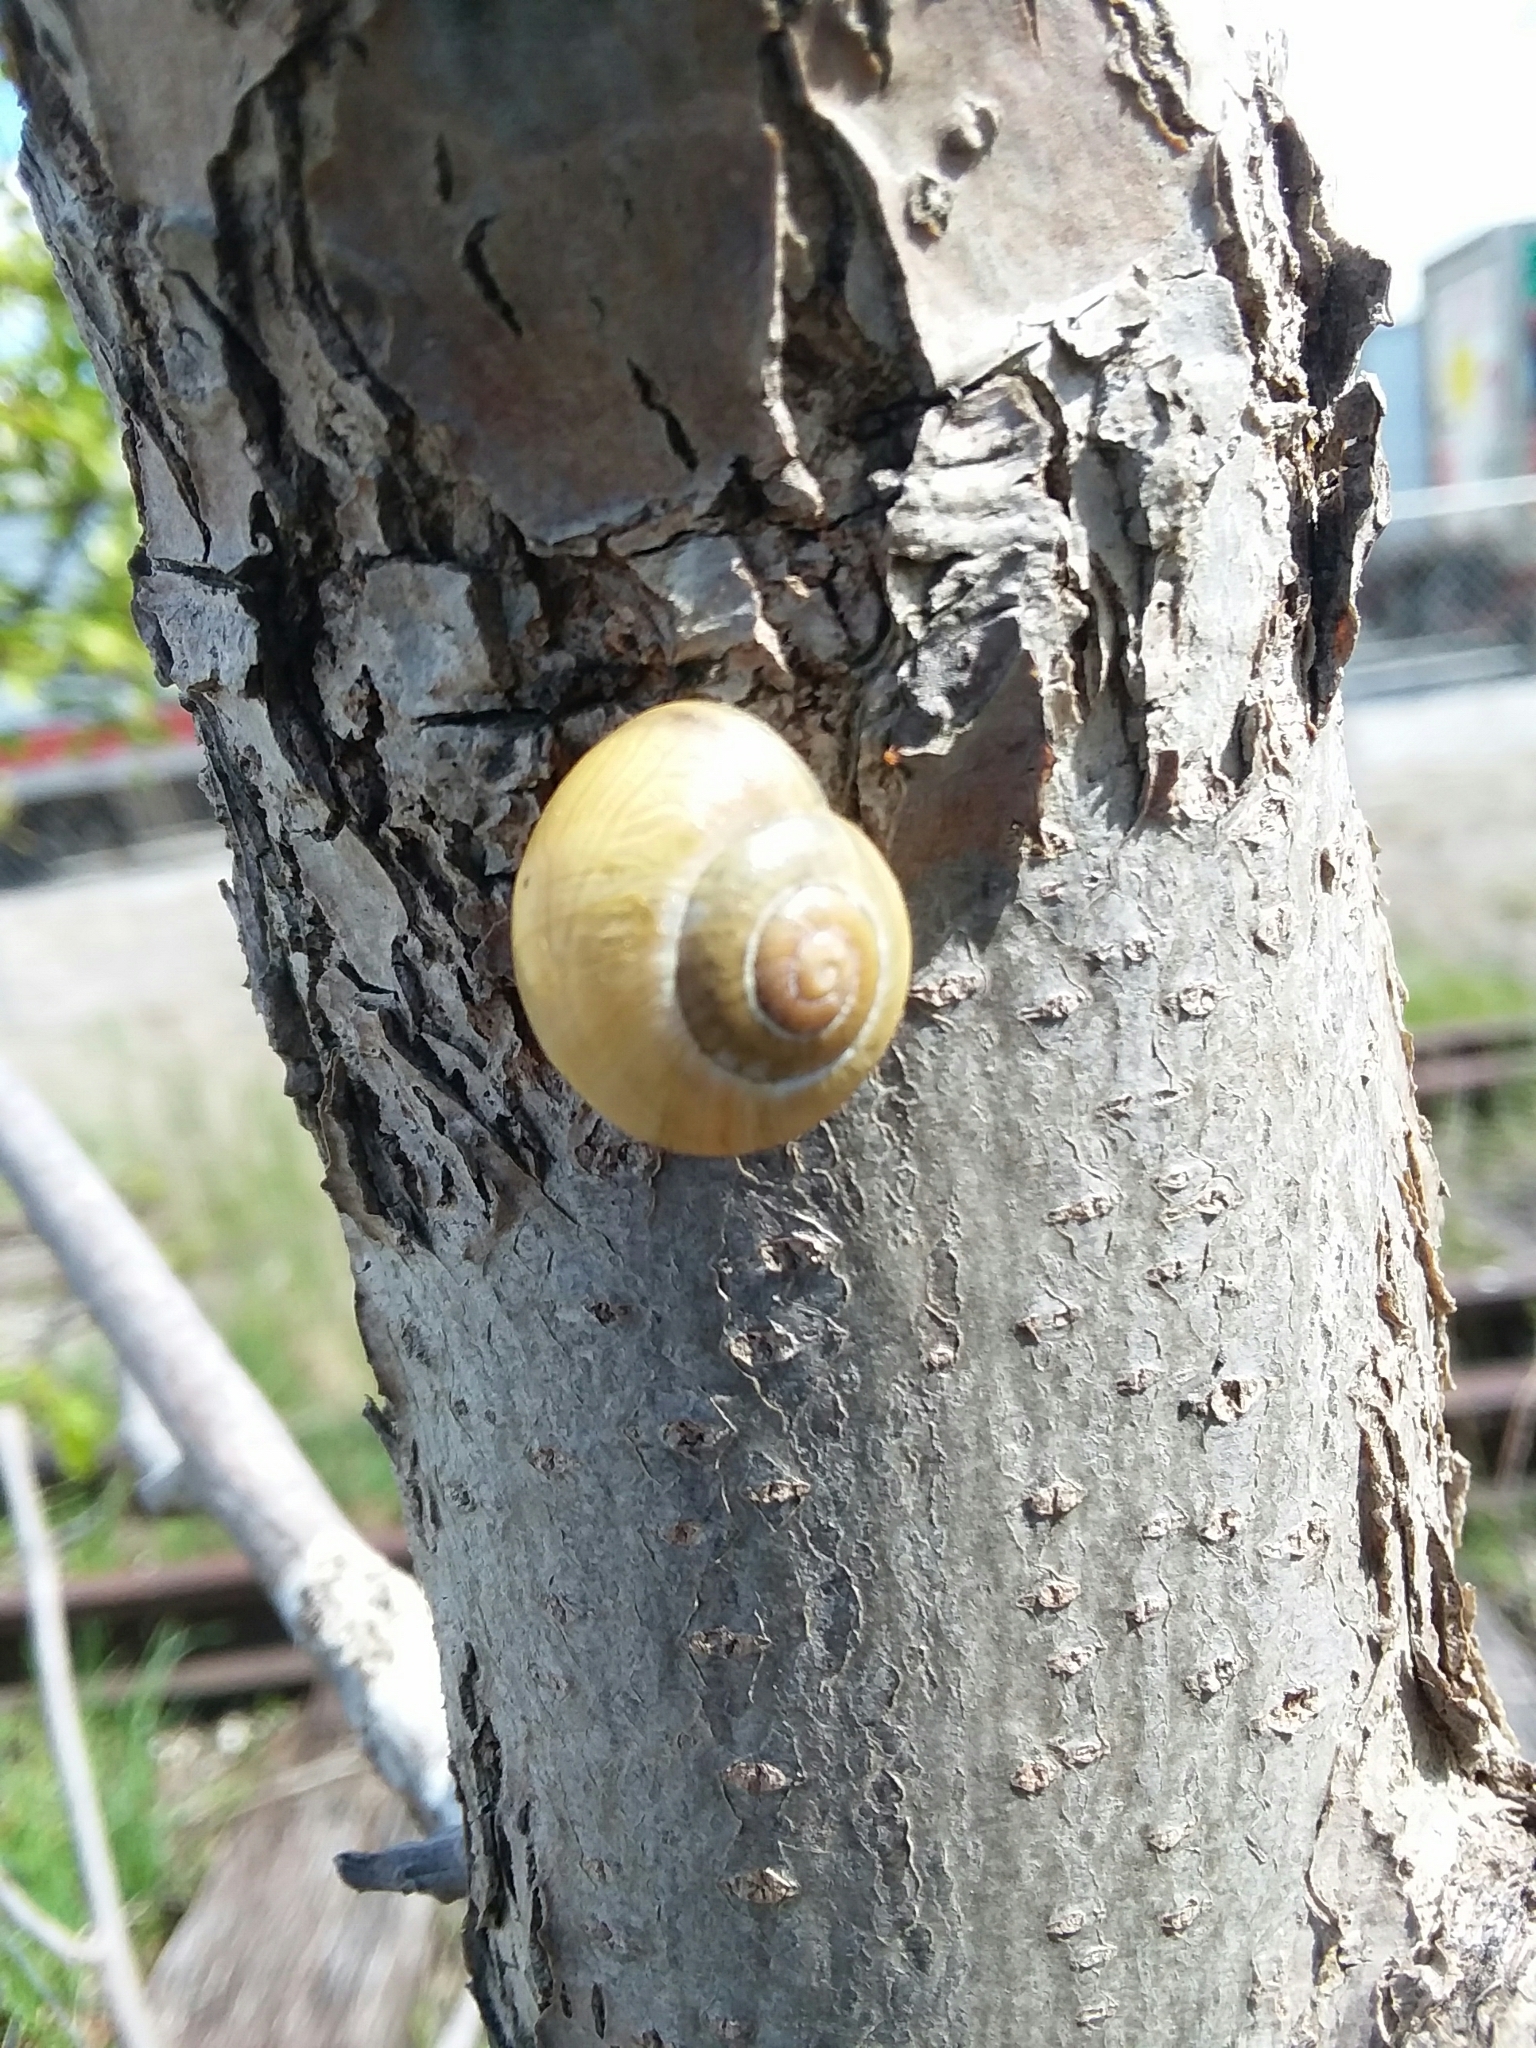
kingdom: Animalia
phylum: Mollusca
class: Gastropoda
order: Stylommatophora
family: Helicidae
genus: Cepaea
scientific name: Cepaea nemoralis
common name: Grovesnail
